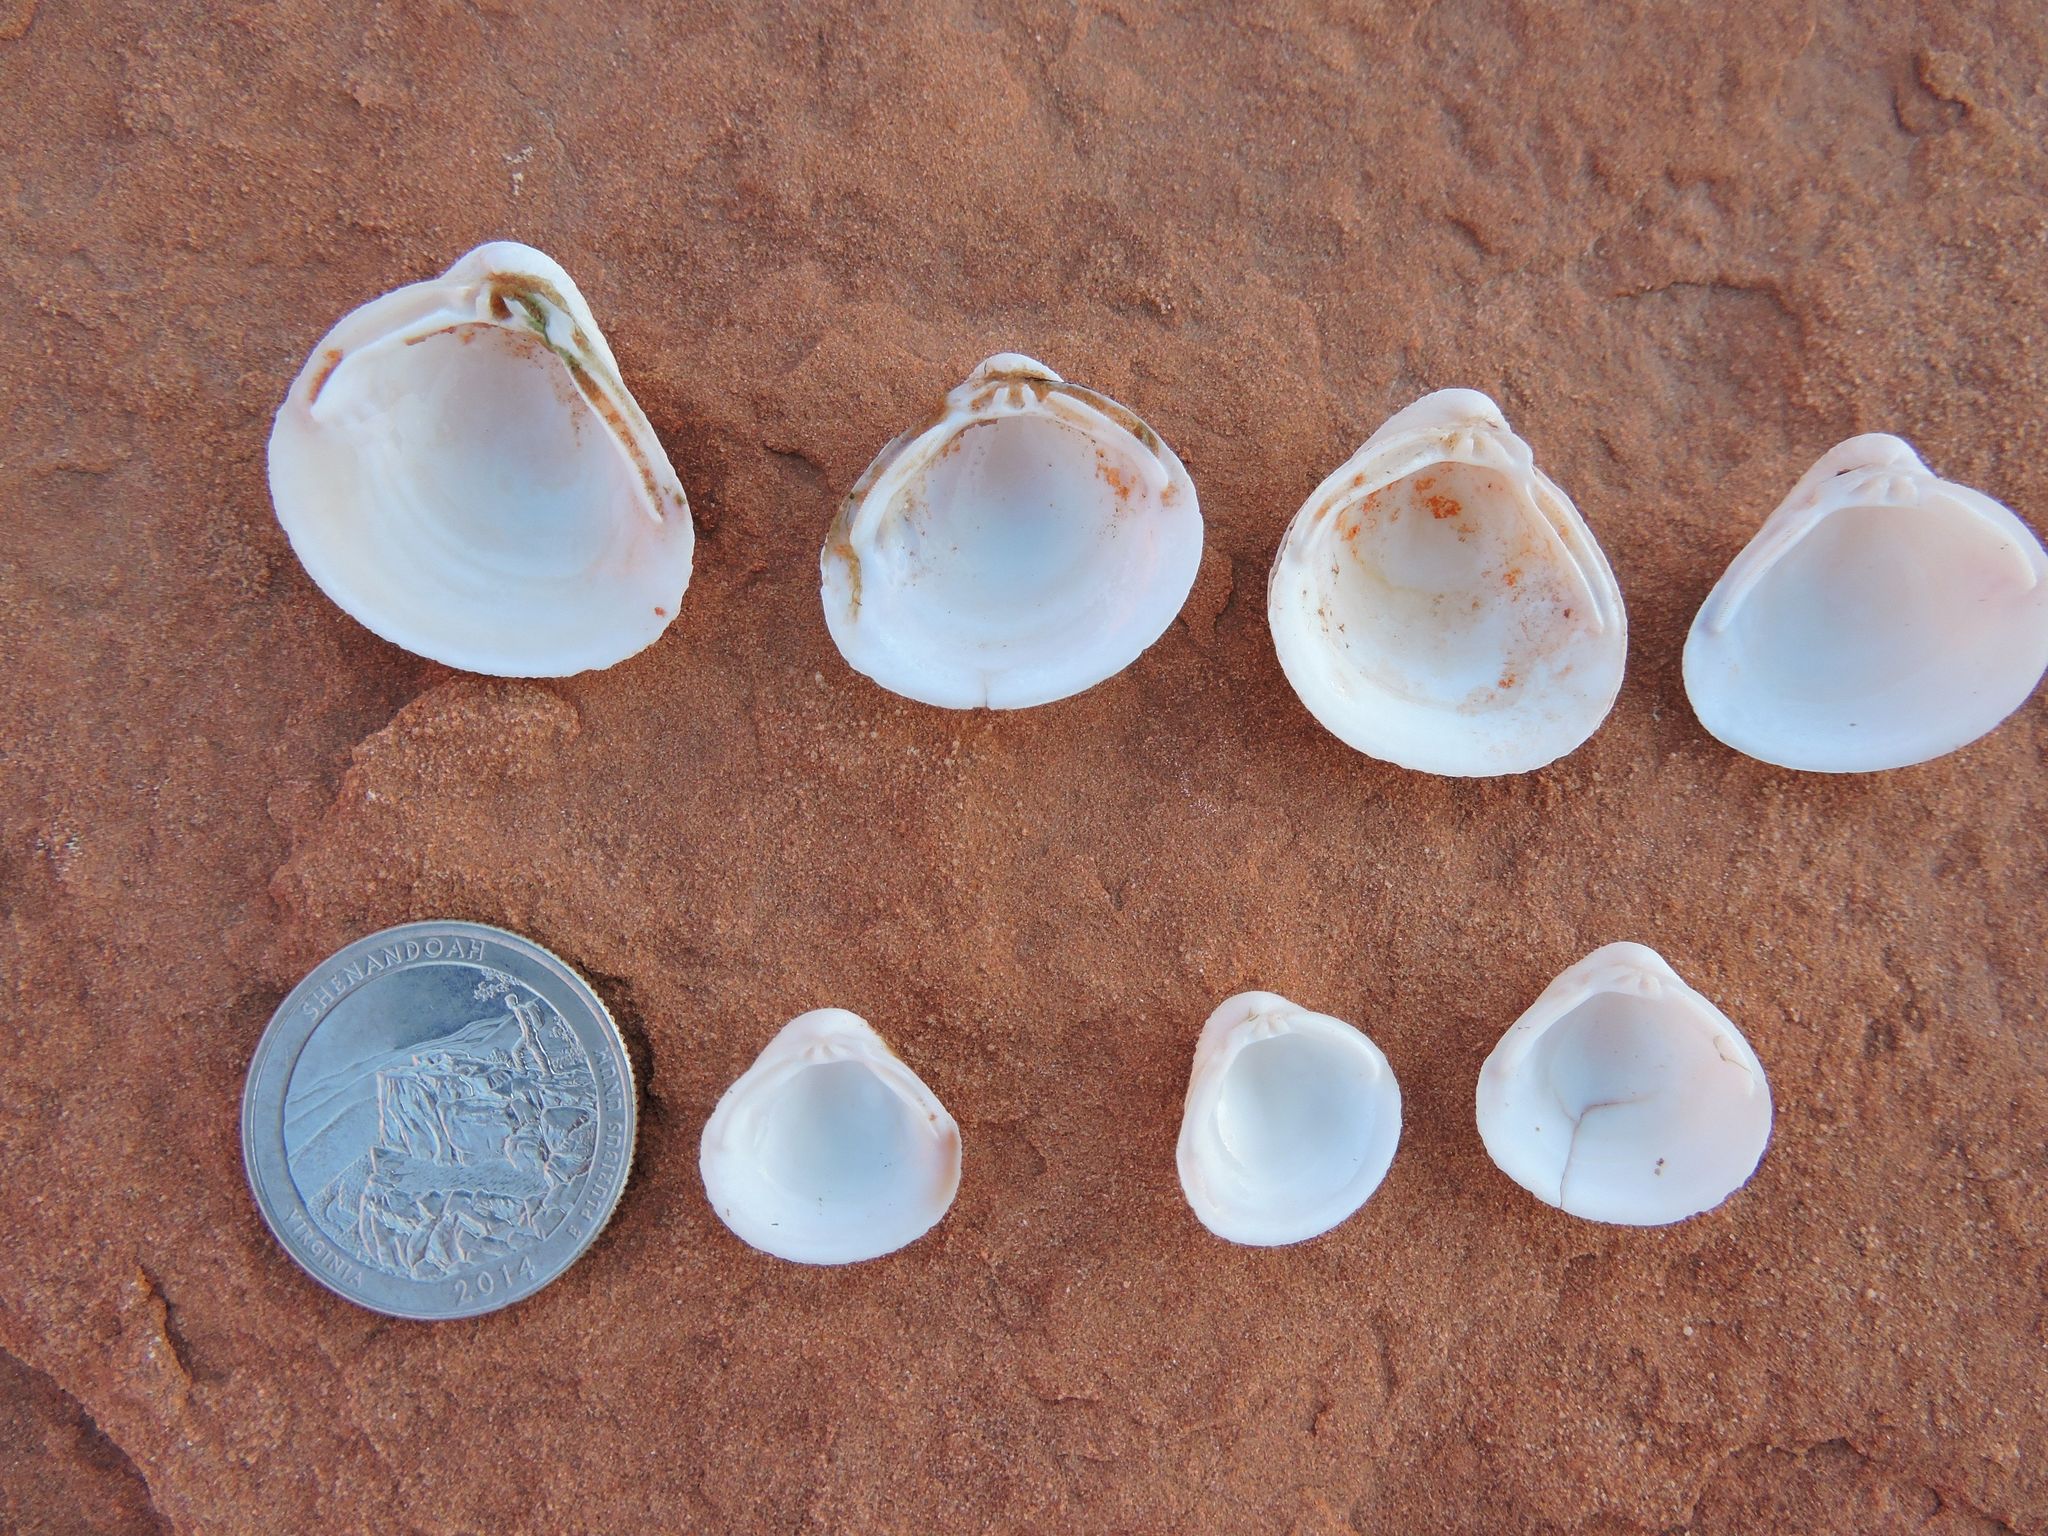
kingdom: Animalia
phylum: Mollusca
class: Bivalvia
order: Venerida
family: Cyrenidae
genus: Corbicula
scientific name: Corbicula fluminea
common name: Asian clam
